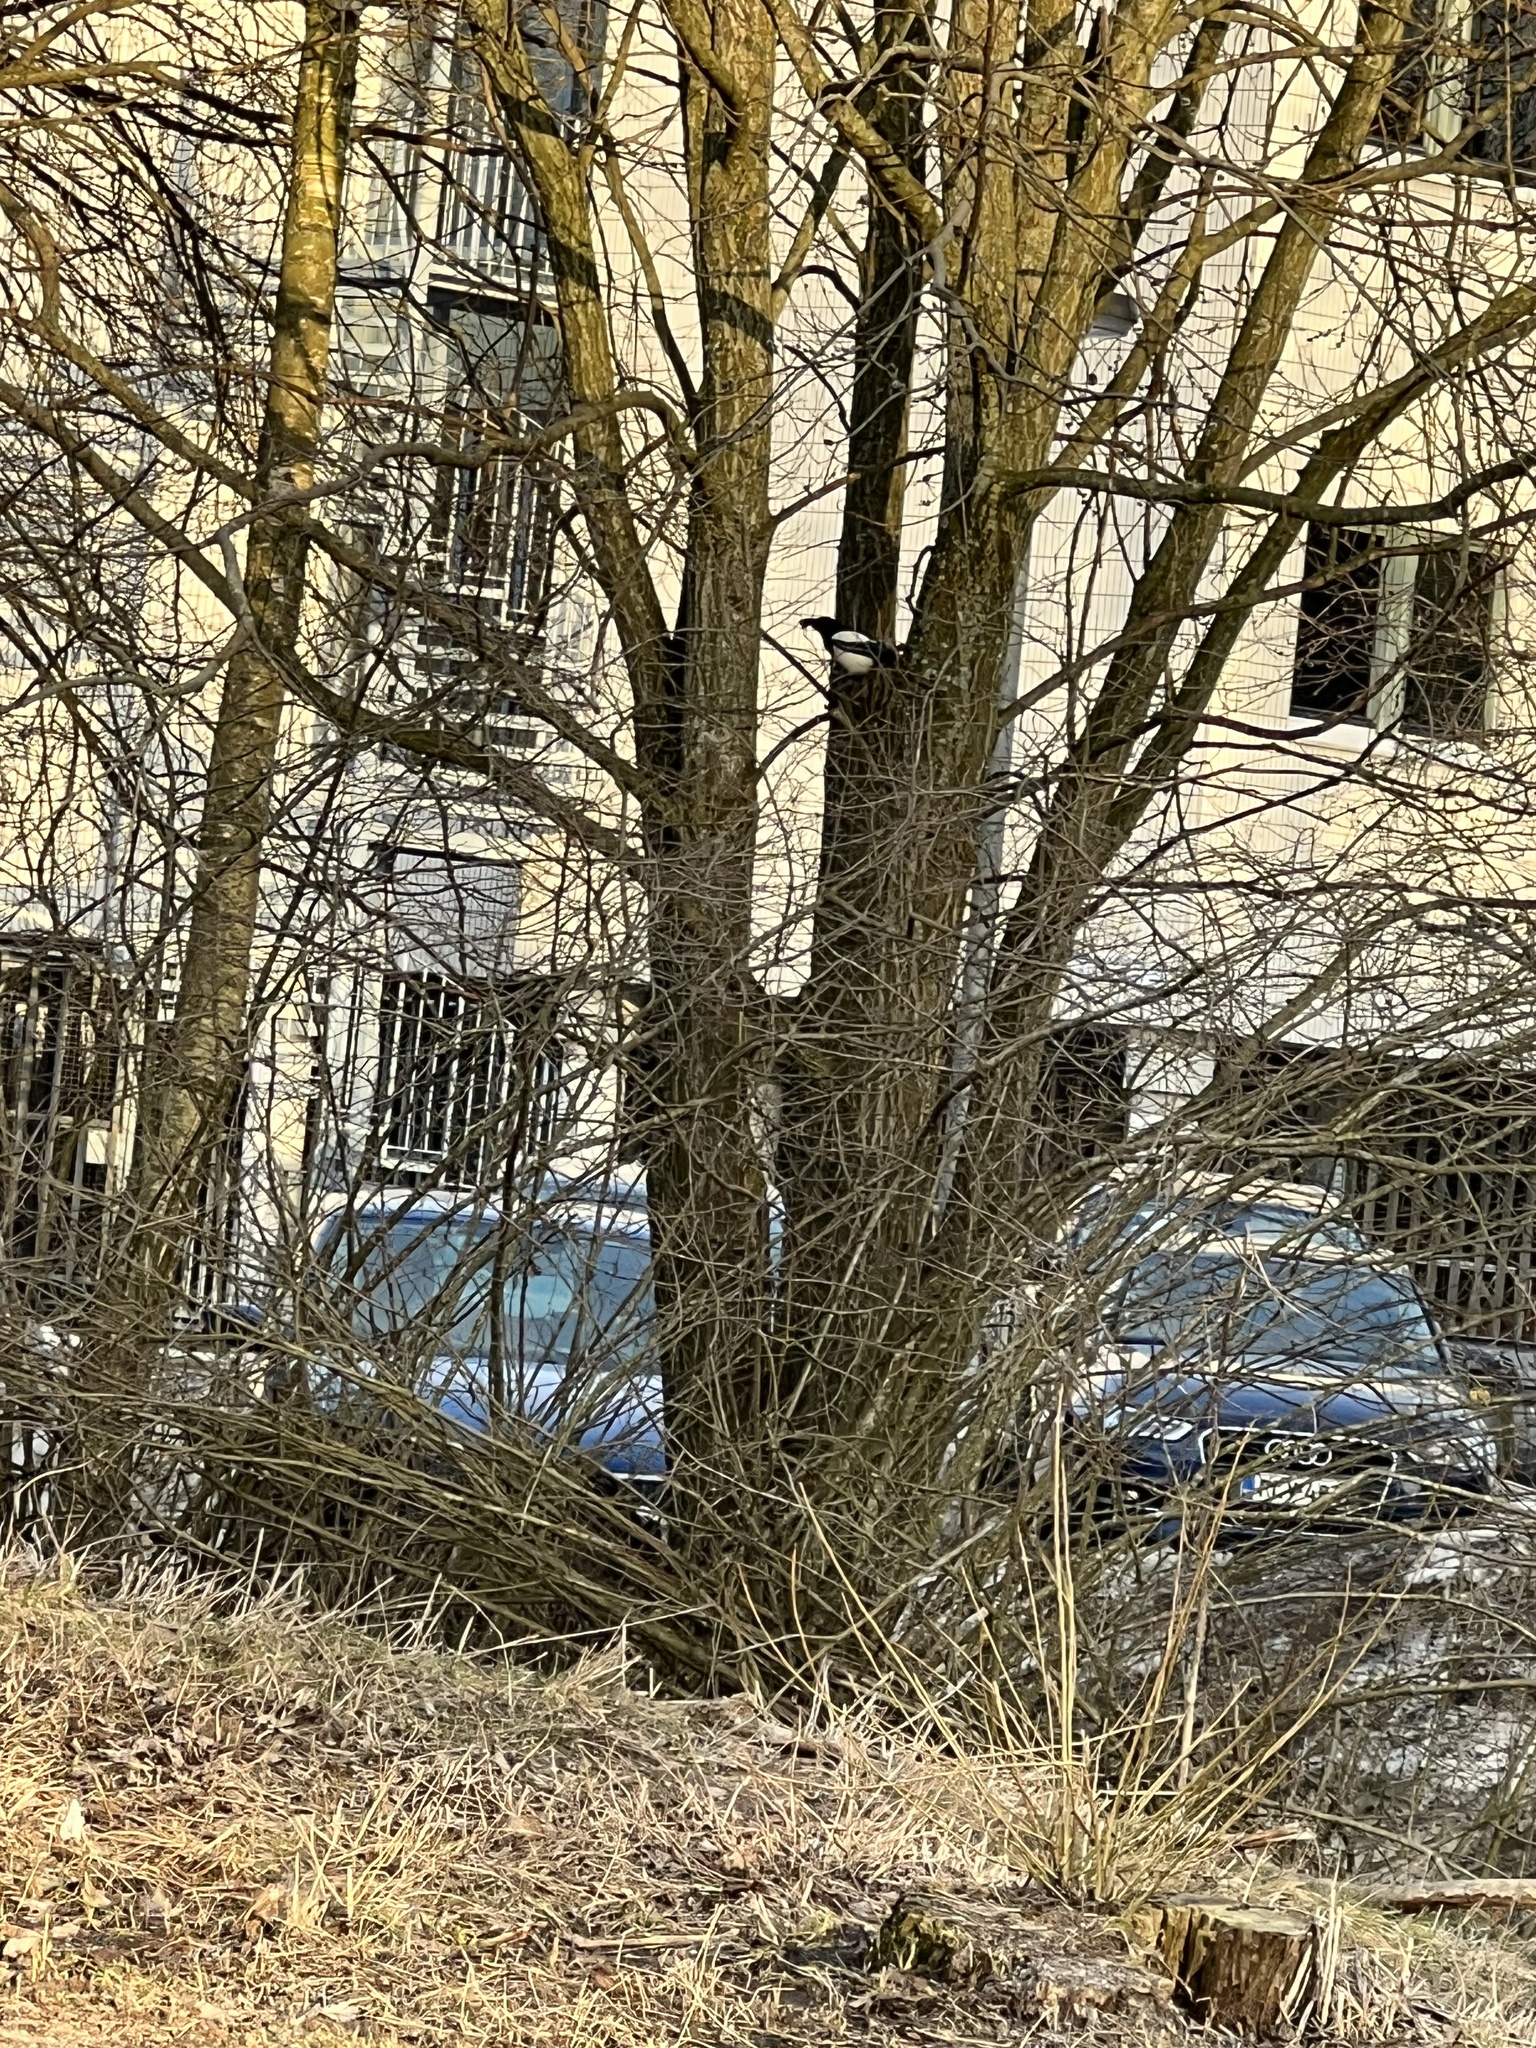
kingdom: Animalia
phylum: Chordata
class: Aves
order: Passeriformes
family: Corvidae
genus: Pica
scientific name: Pica pica
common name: Eurasian magpie
